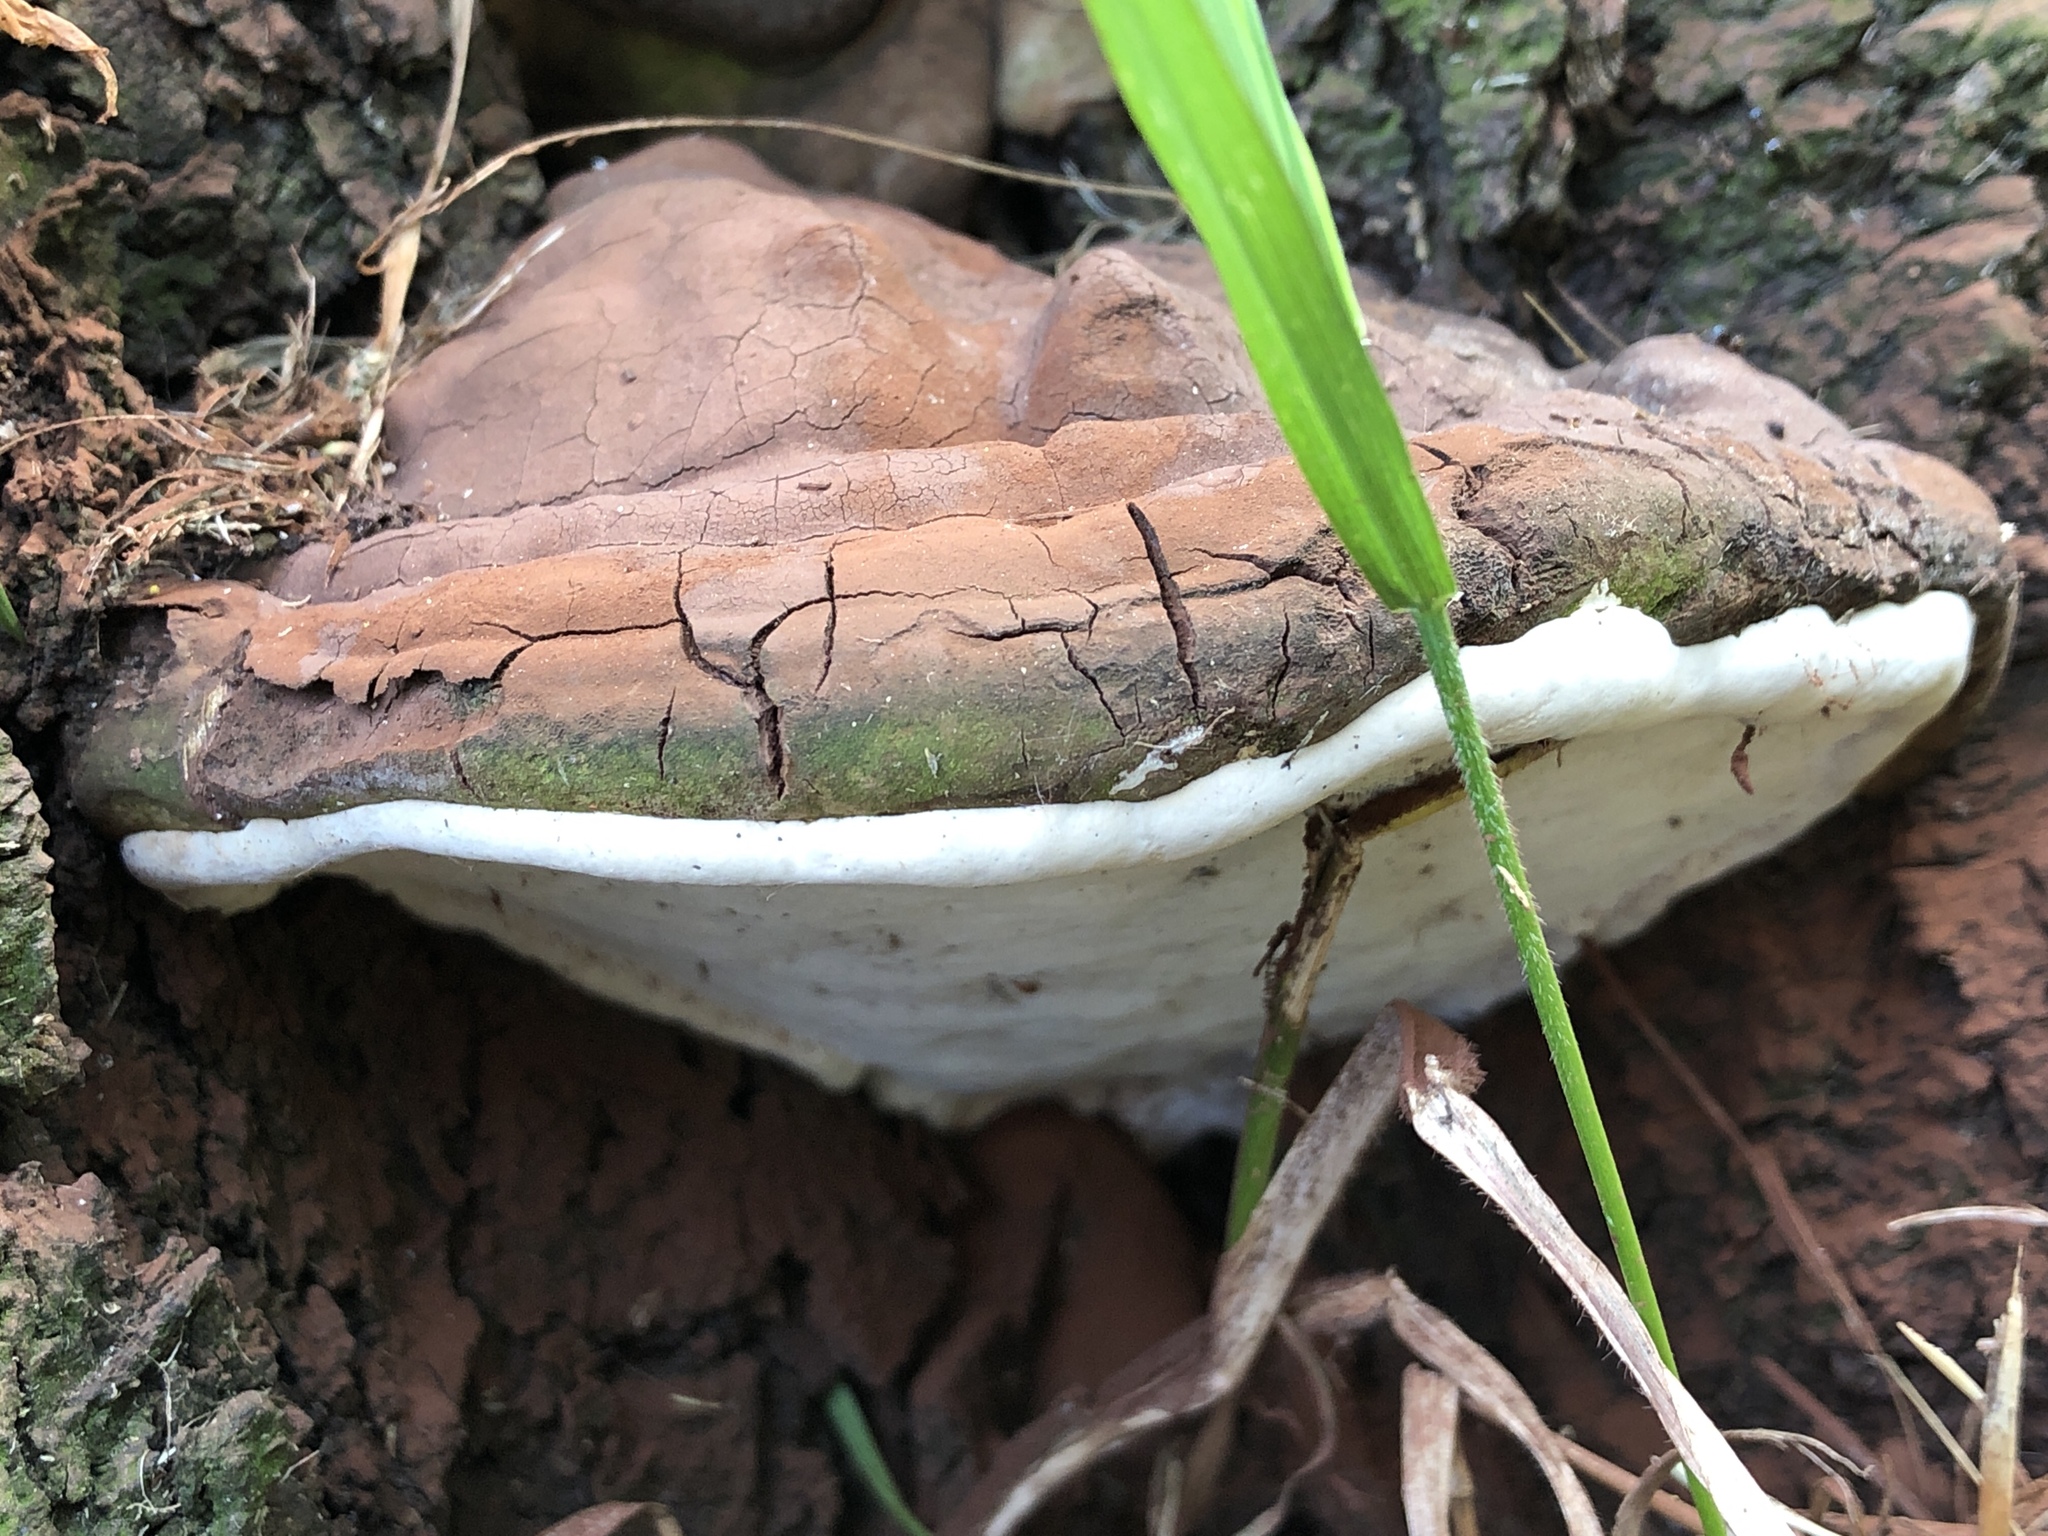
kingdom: Fungi
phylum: Basidiomycota
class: Agaricomycetes
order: Polyporales
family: Polyporaceae
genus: Ganoderma
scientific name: Ganoderma applanatum
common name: Artist's bracket
